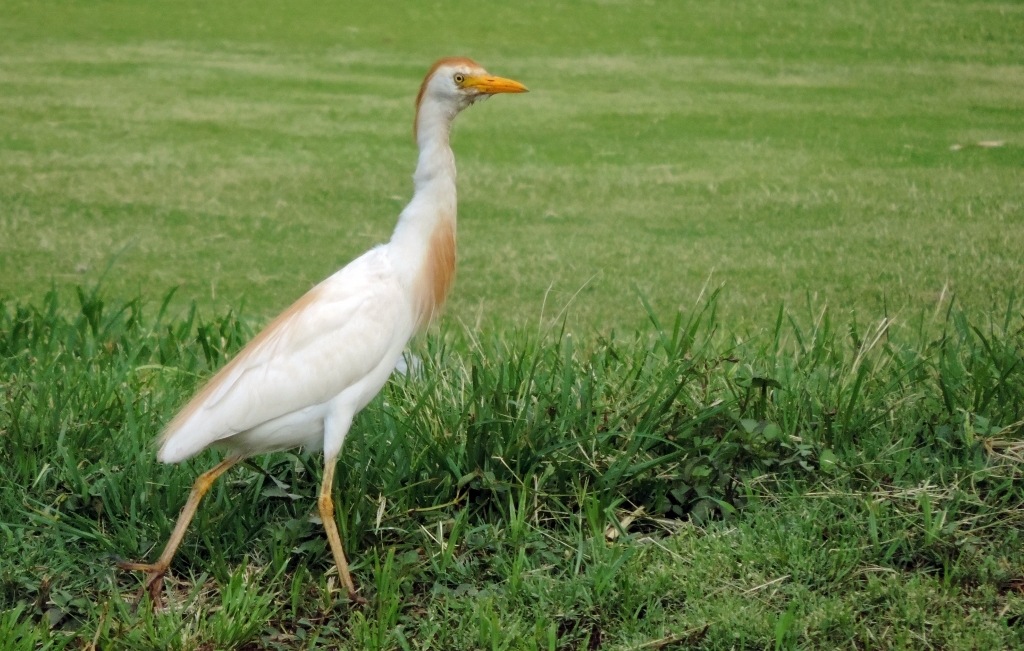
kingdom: Animalia
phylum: Chordata
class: Aves
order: Pelecaniformes
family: Ardeidae
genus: Bubulcus
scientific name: Bubulcus ibis
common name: Cattle egret
